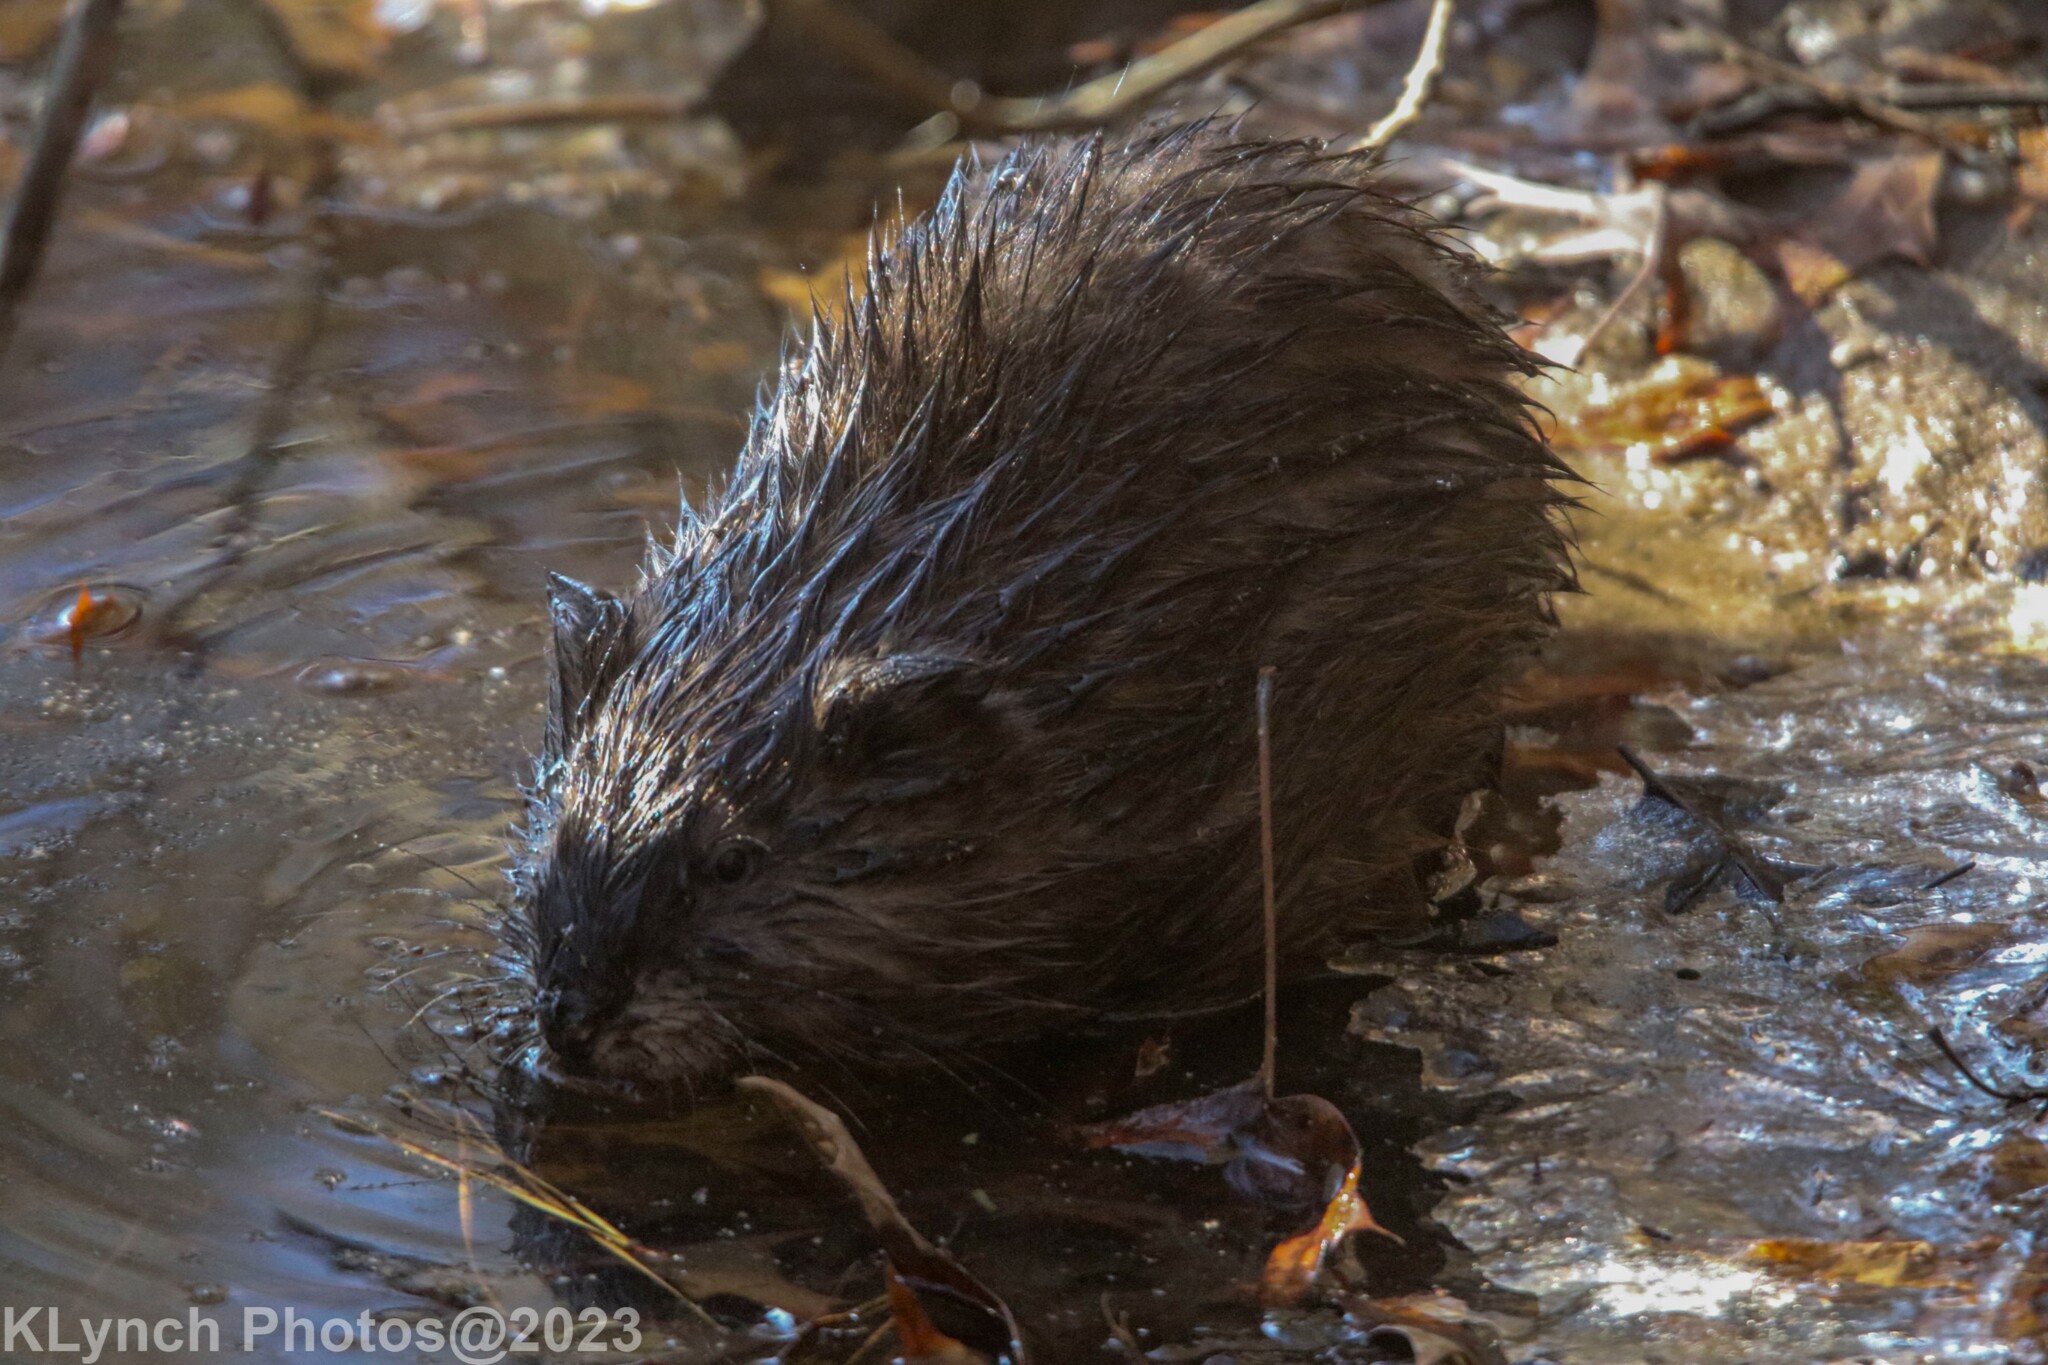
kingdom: Animalia
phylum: Chordata
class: Mammalia
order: Rodentia
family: Cricetidae
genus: Ondatra
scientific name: Ondatra zibethicus
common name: Muskrat
